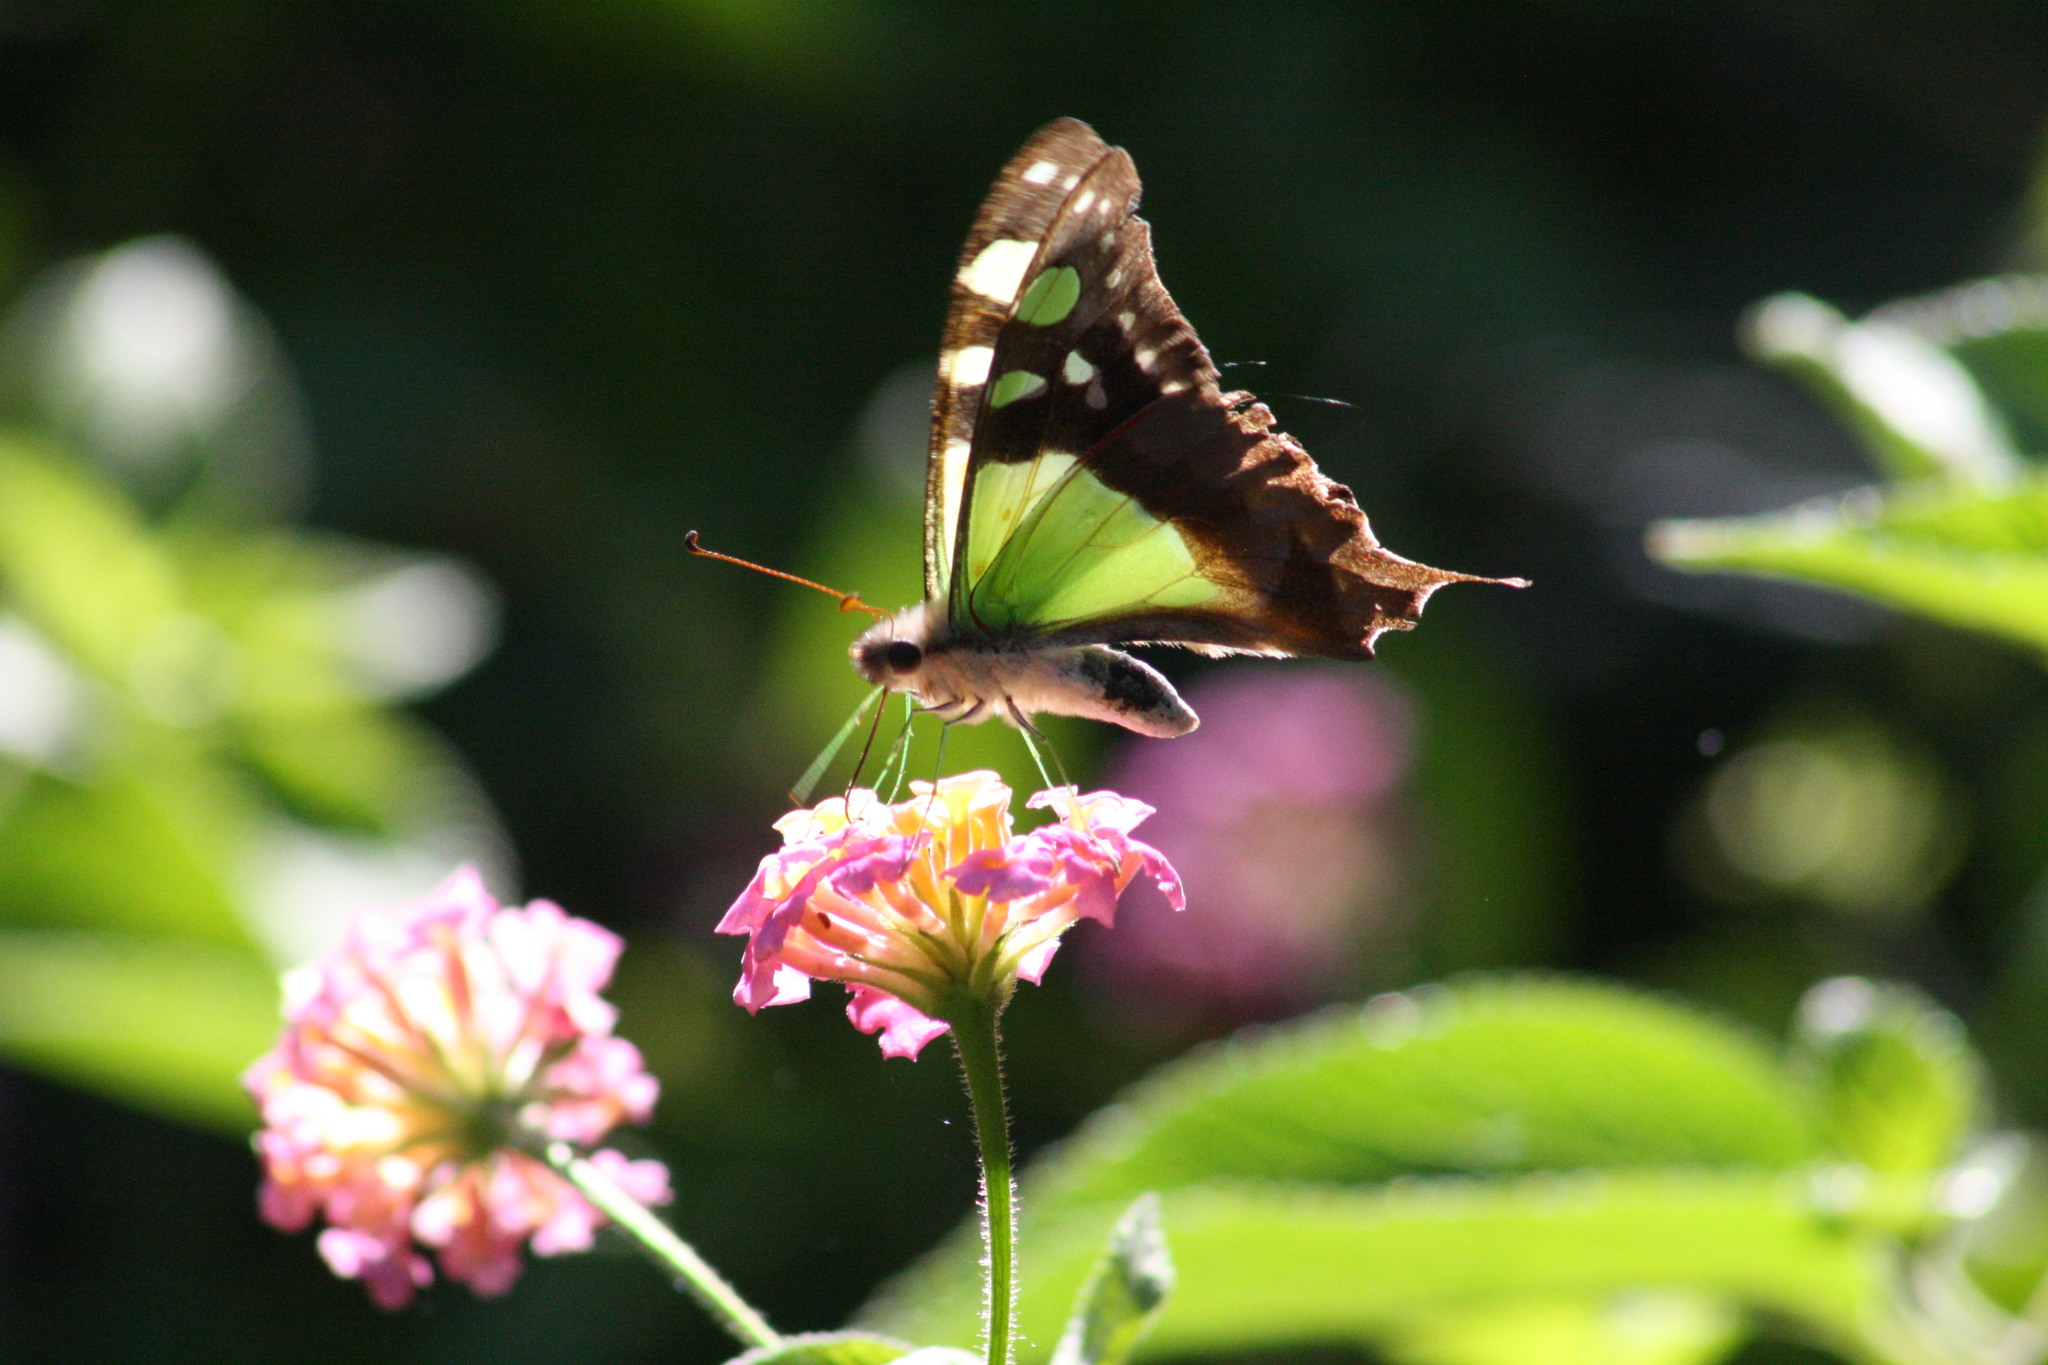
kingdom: Animalia
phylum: Arthropoda
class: Insecta
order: Lepidoptera
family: Papilionidae
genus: Graphium
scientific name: Graphium macleayanus
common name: Macleay's swallowtail
